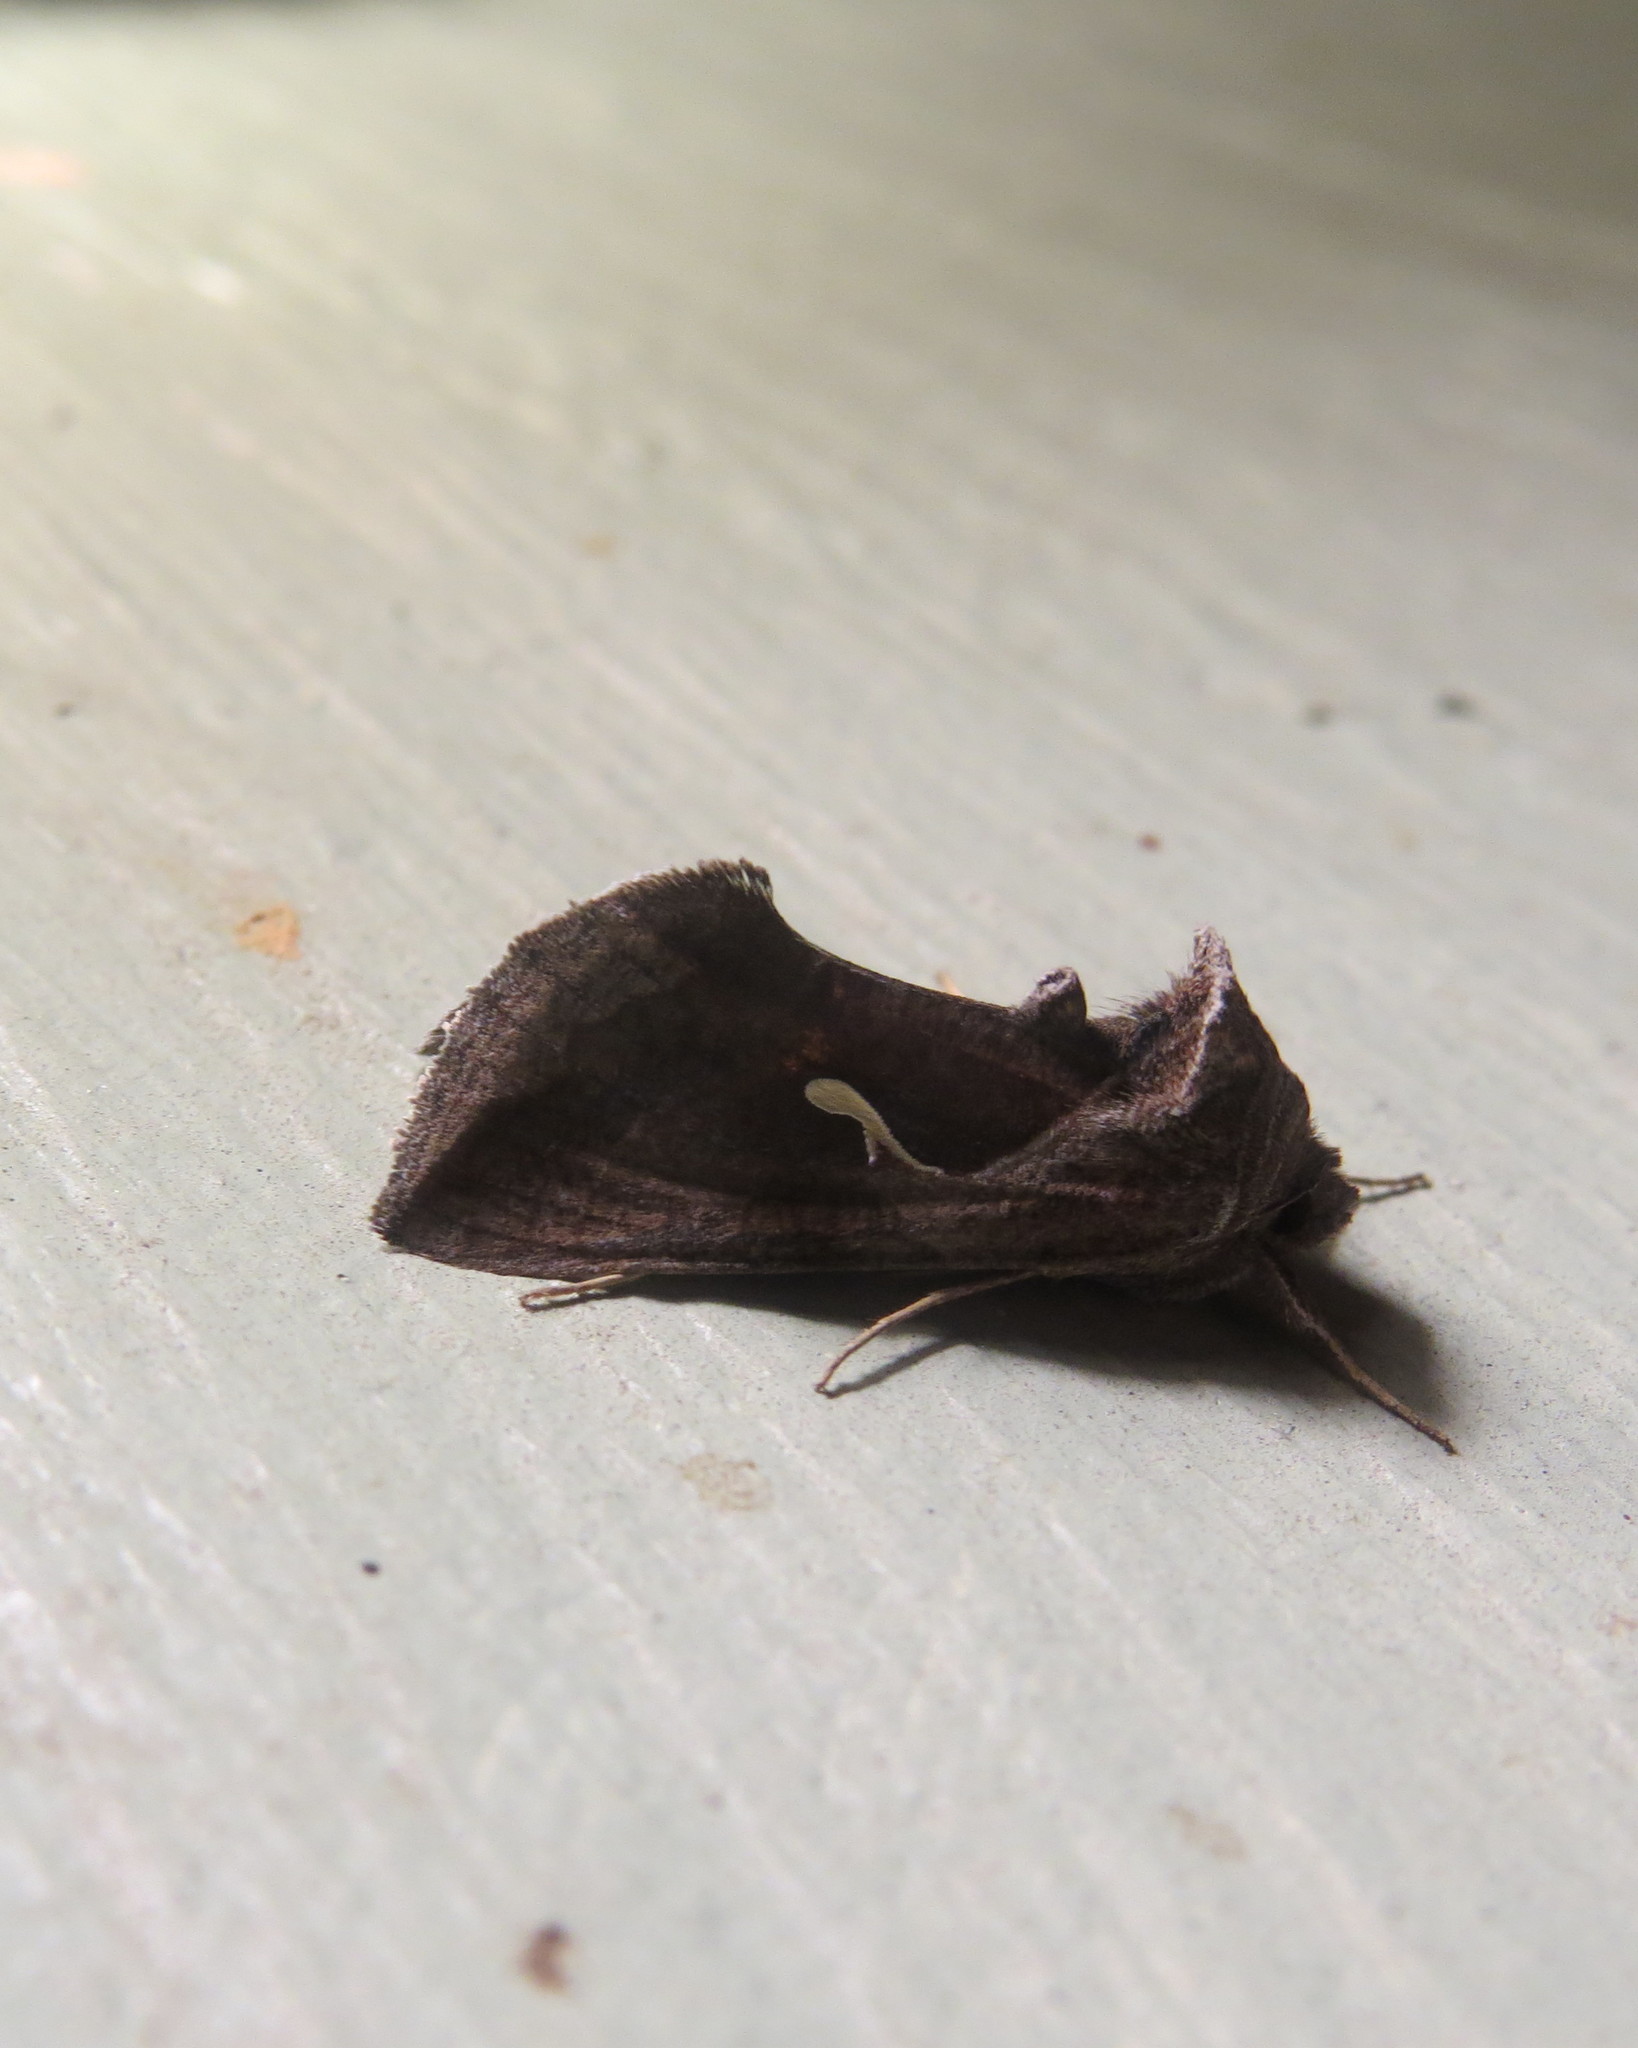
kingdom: Animalia
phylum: Arthropoda
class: Insecta
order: Lepidoptera
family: Noctuidae
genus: Anagrapha
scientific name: Anagrapha falcifera
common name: Celery looper
